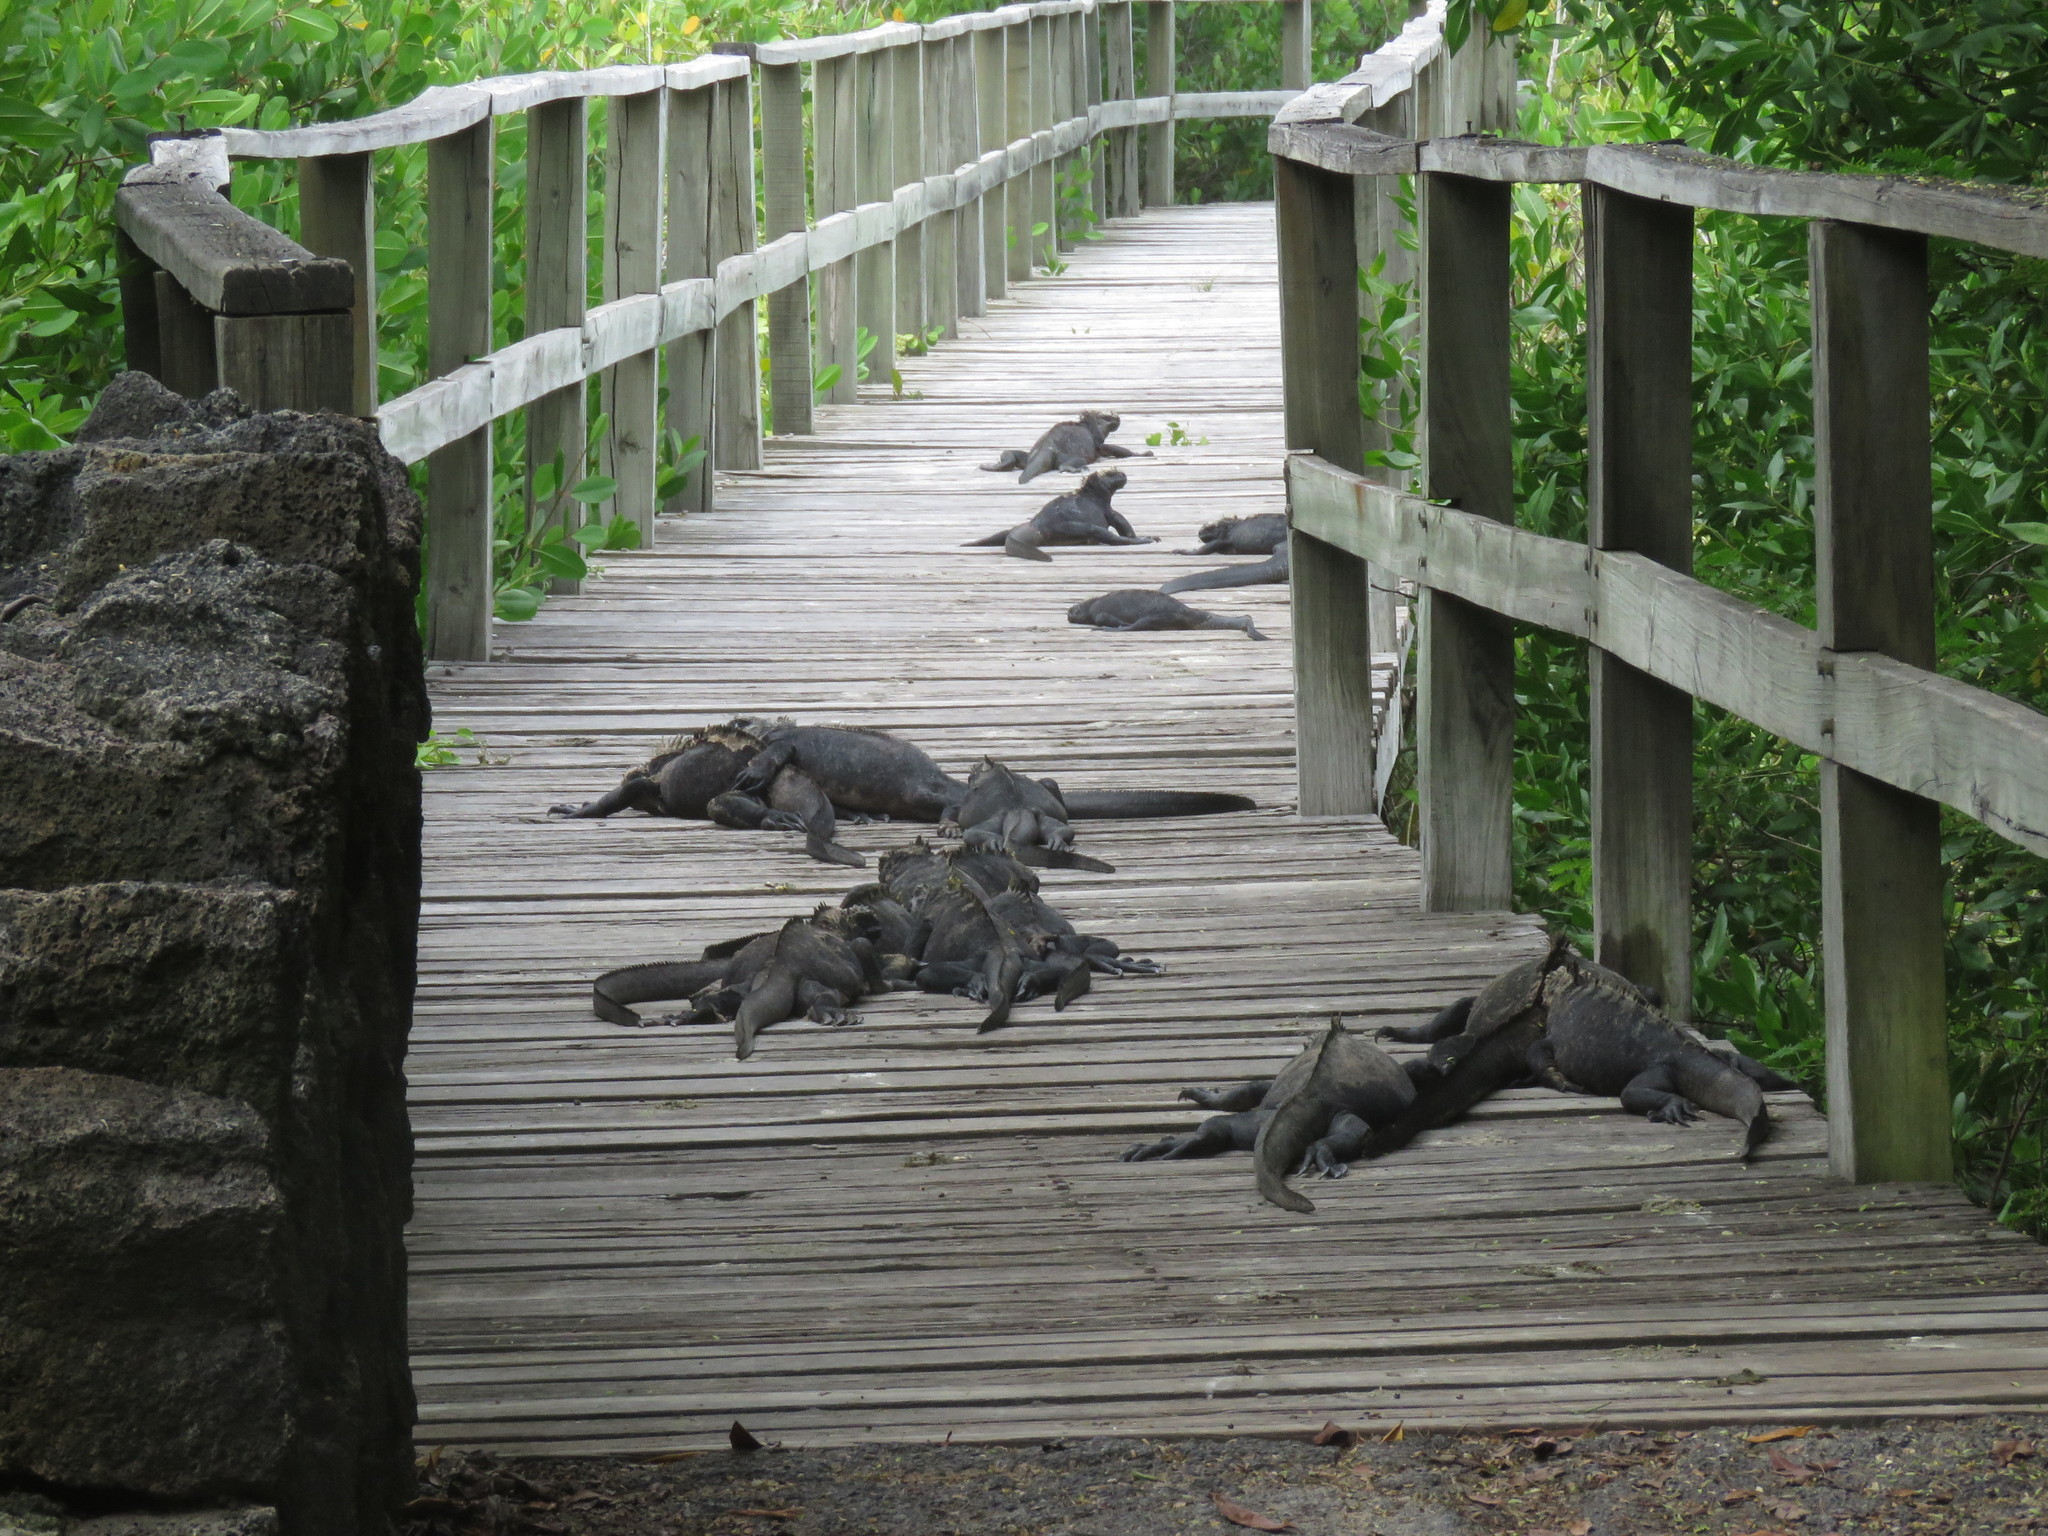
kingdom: Animalia
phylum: Chordata
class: Squamata
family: Iguanidae
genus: Amblyrhynchus
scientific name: Amblyrhynchus cristatus
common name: Marine iguana
